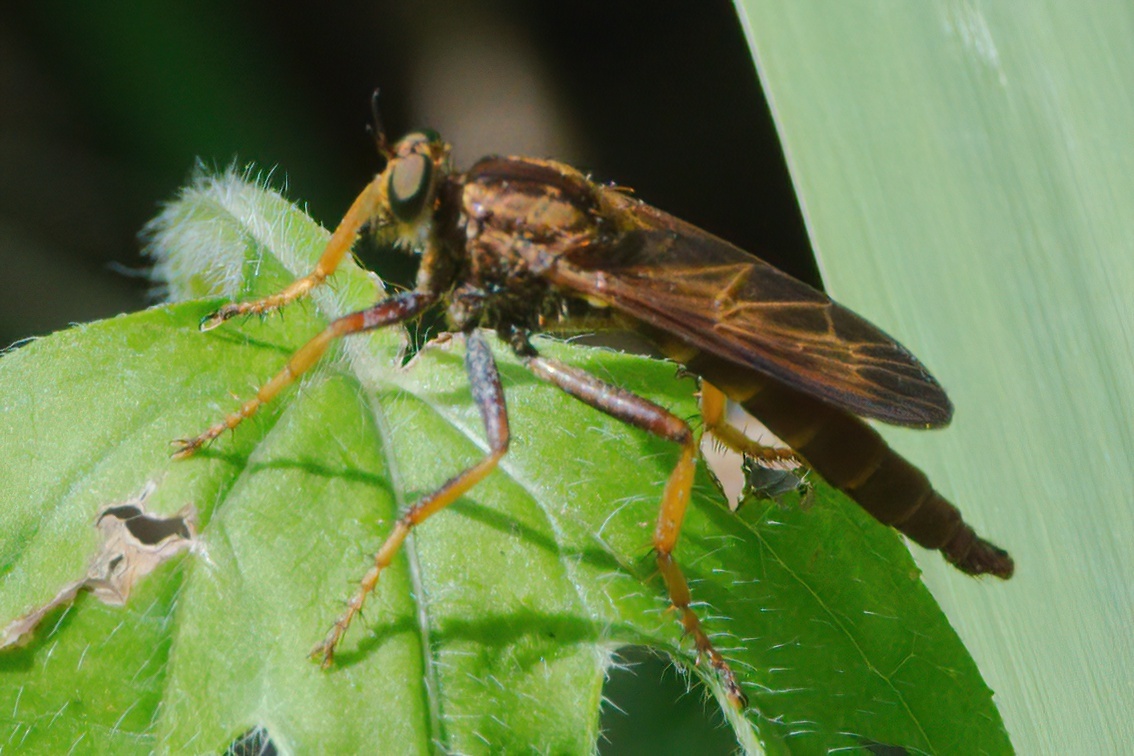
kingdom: Animalia
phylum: Arthropoda
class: Insecta
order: Diptera
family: Asilidae
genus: Asilus
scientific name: Asilus sericeus
